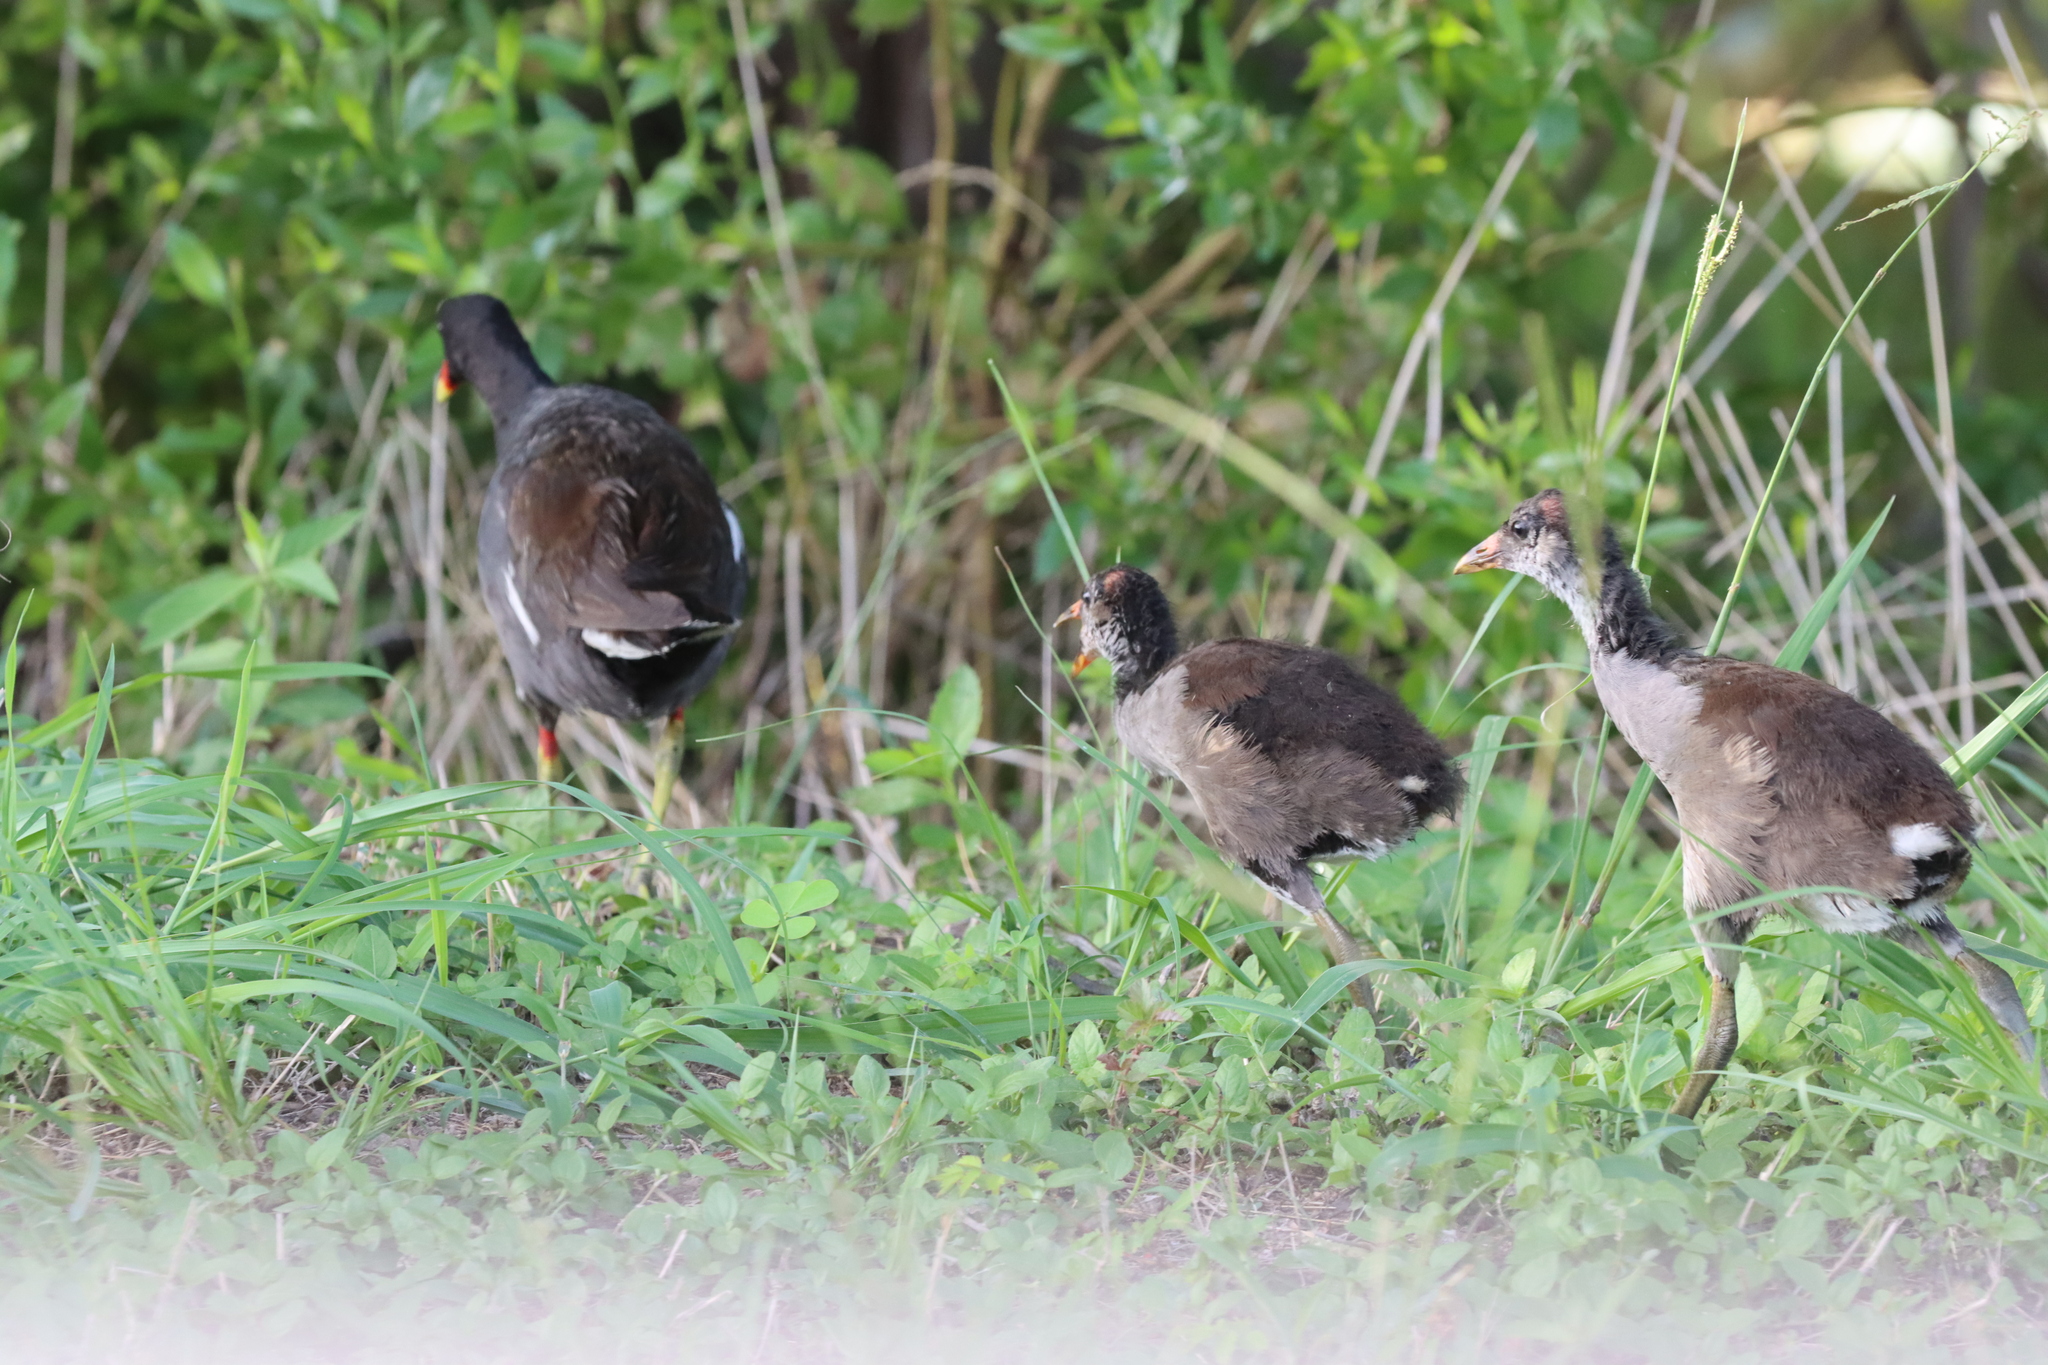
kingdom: Animalia
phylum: Chordata
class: Aves
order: Gruiformes
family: Rallidae
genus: Gallinula
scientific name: Gallinula chloropus
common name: Common moorhen
